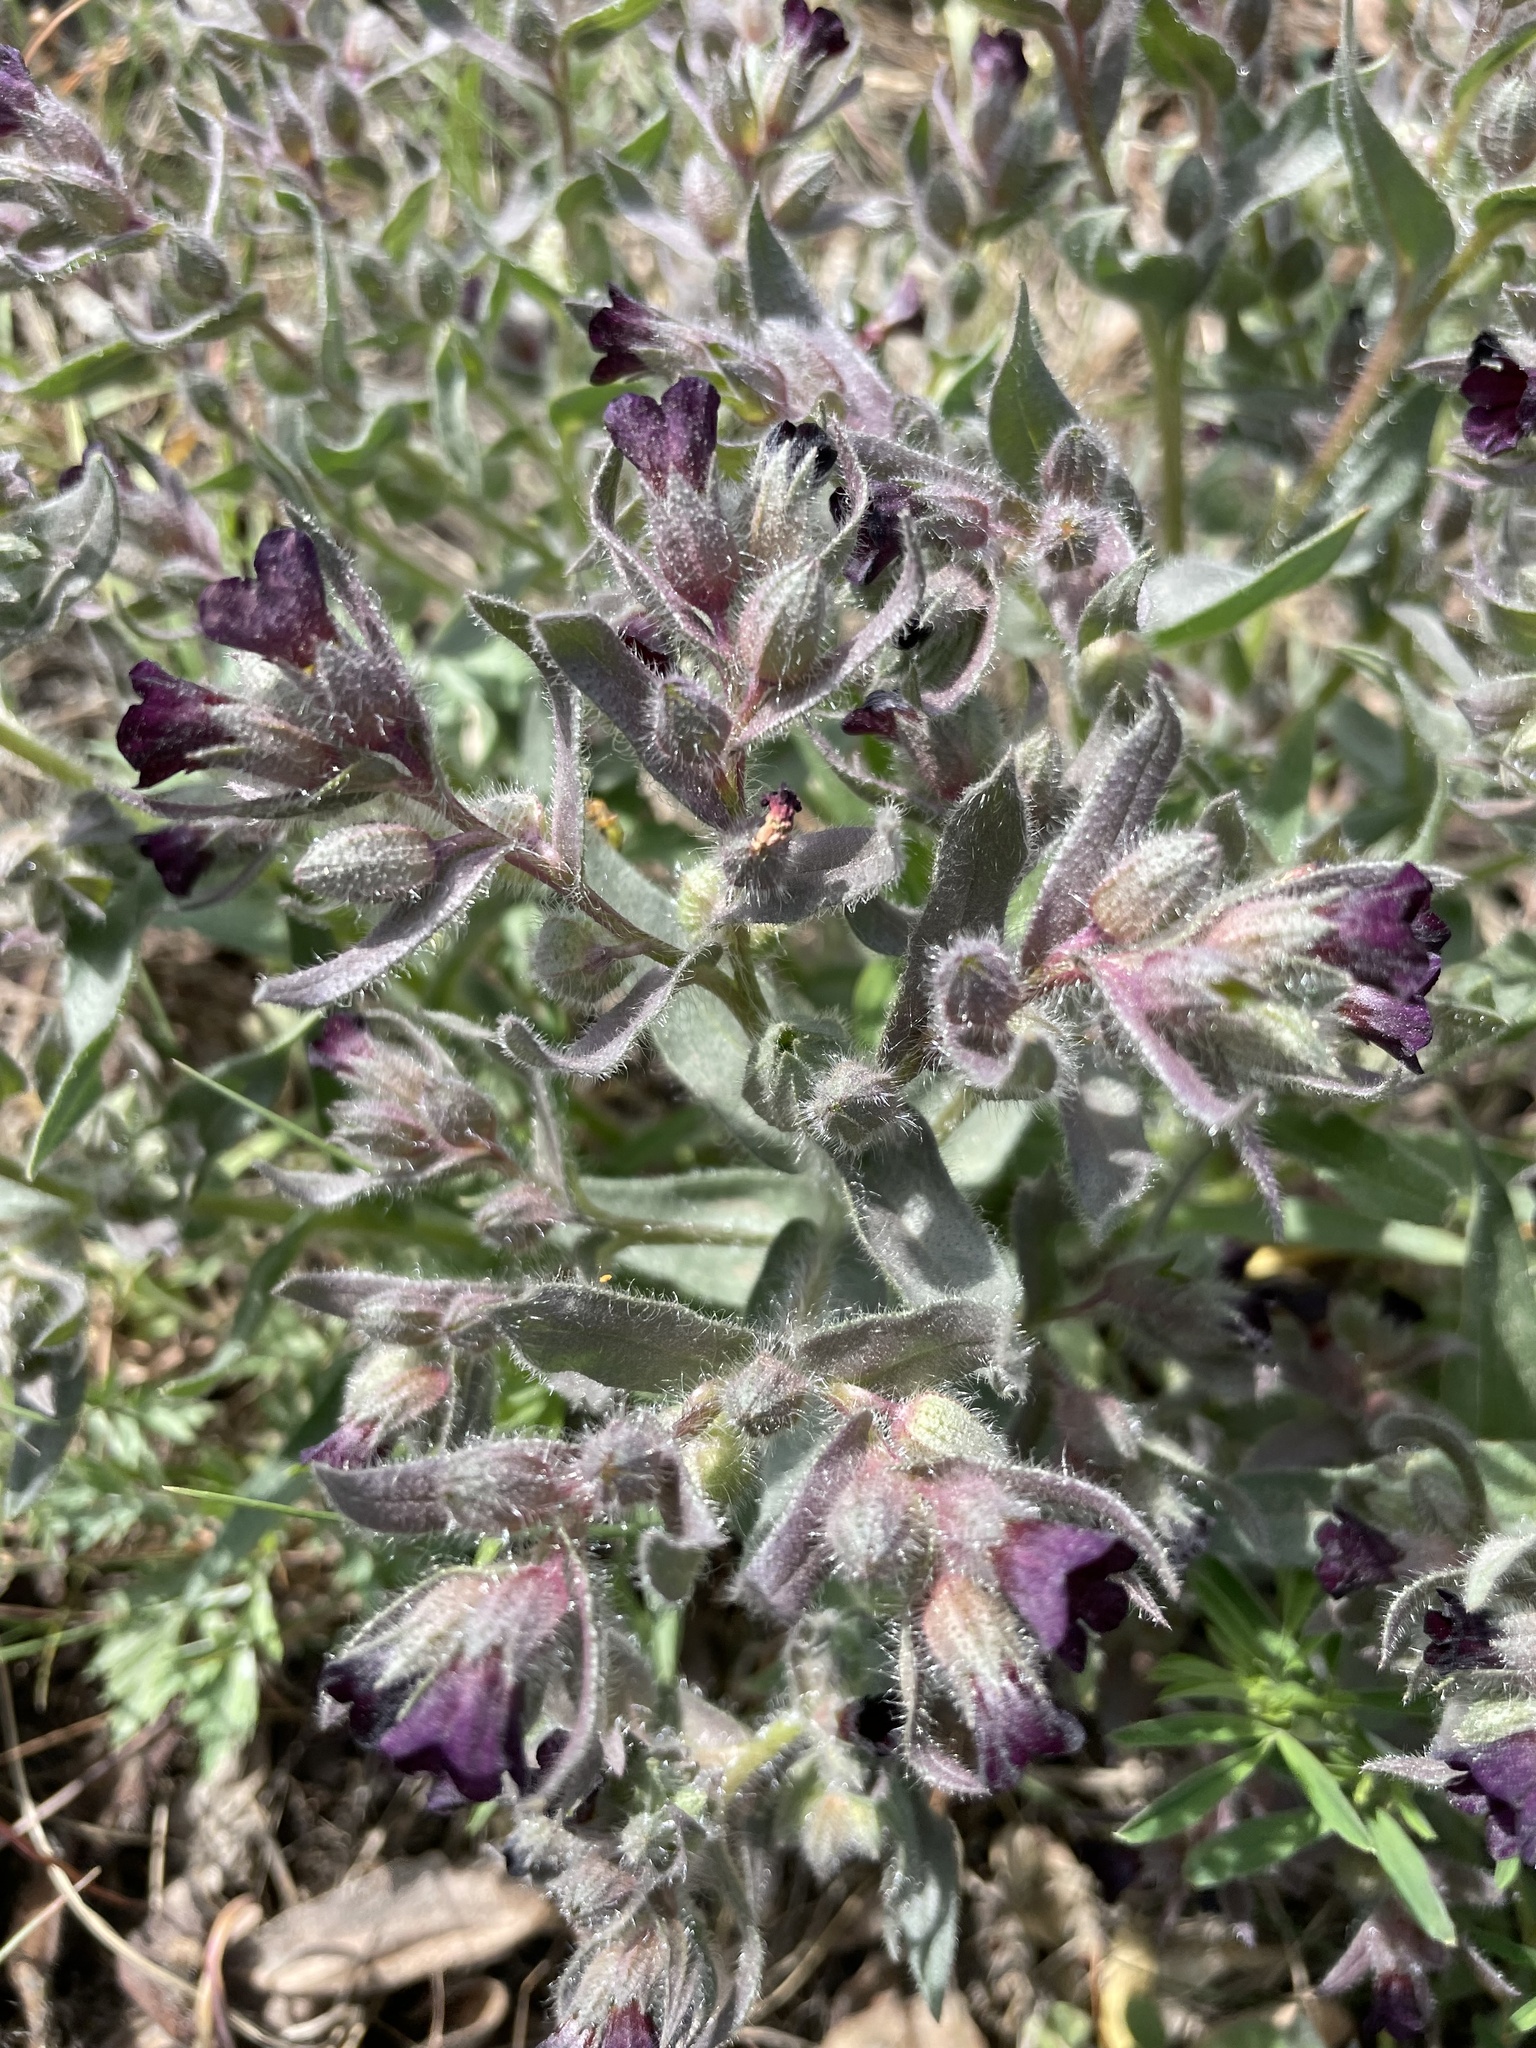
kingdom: Plantae
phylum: Tracheophyta
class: Magnoliopsida
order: Boraginales
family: Boraginaceae
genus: Nonea
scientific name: Nonea pulla
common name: Brown nonea
